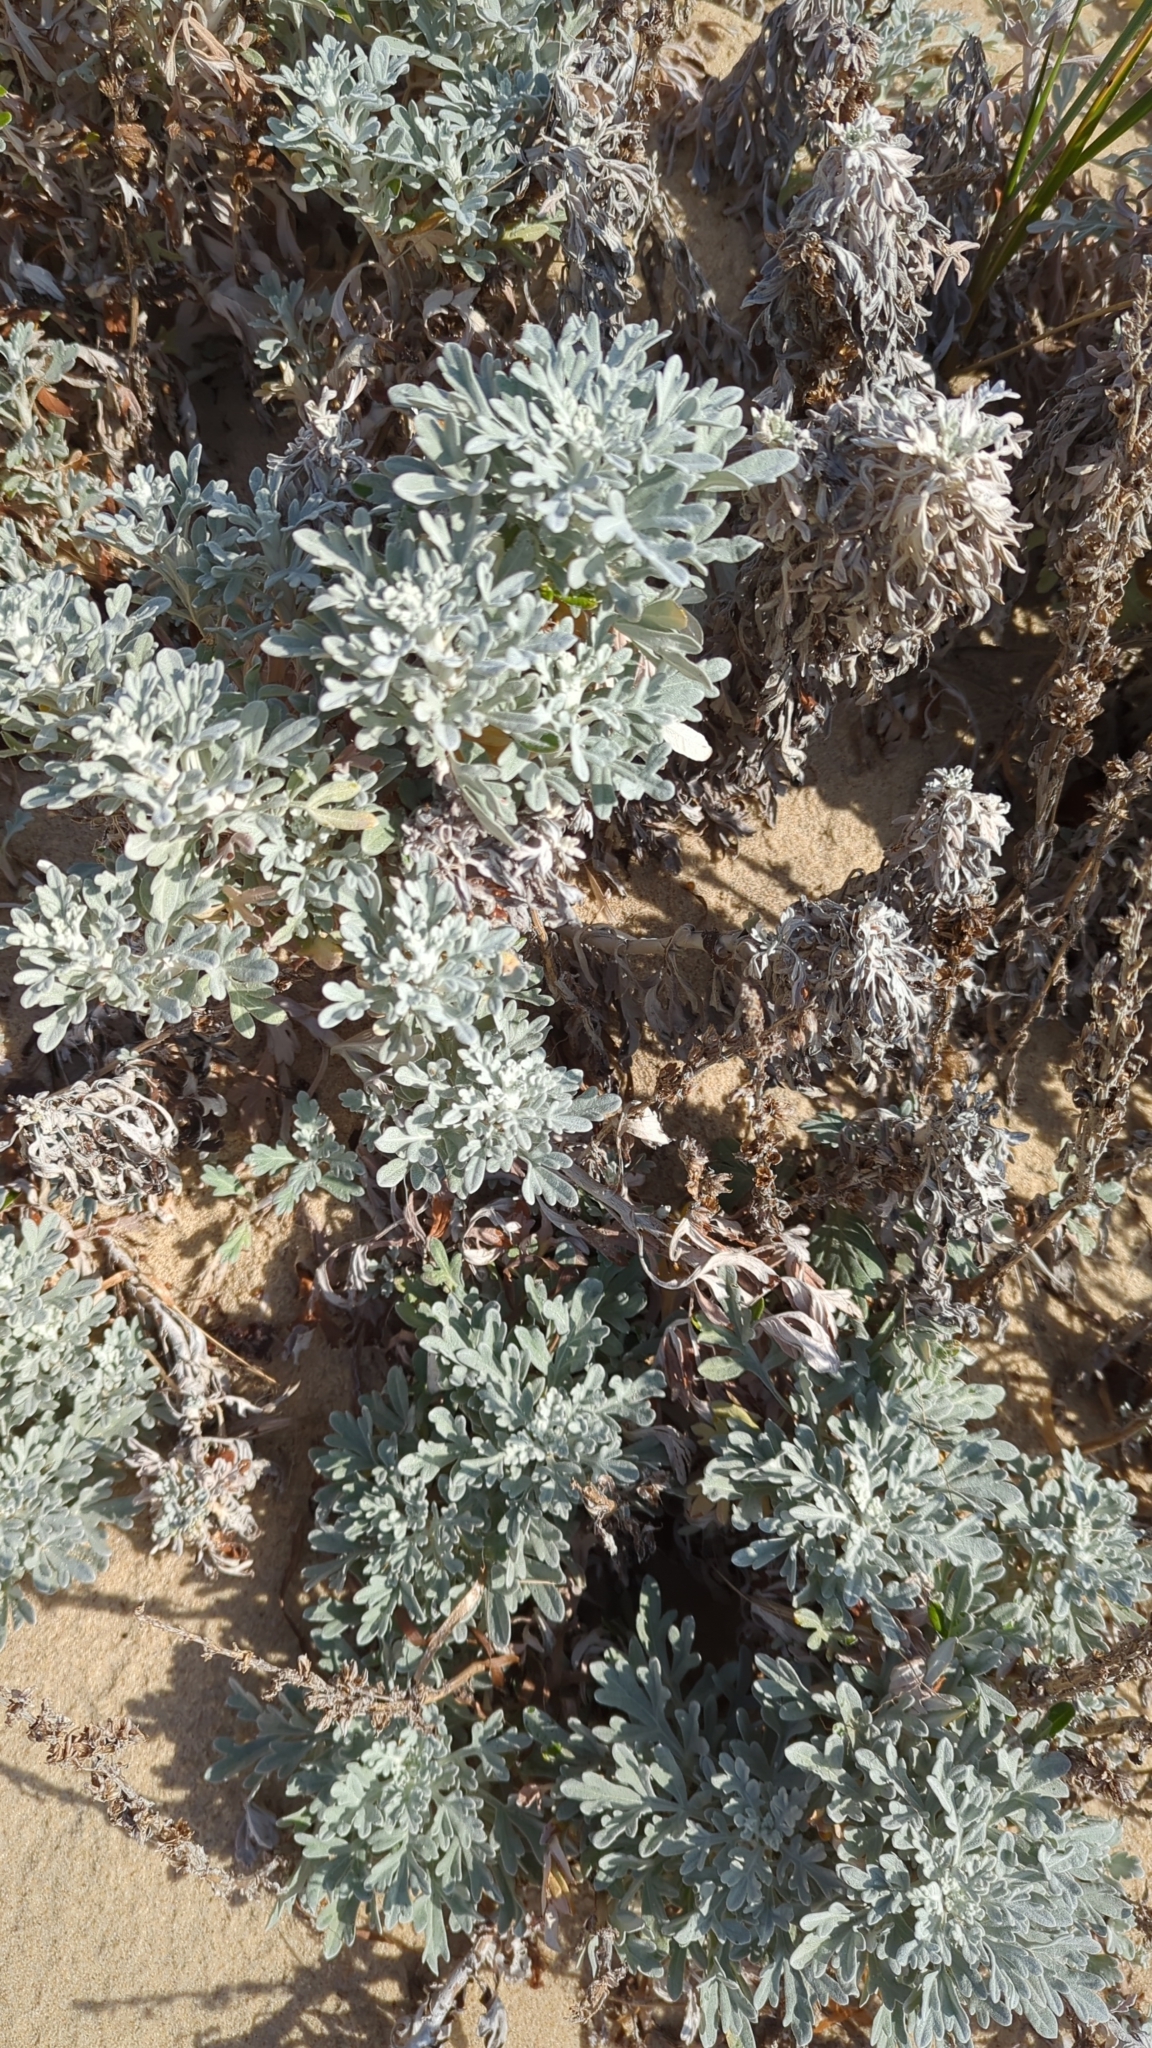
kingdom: Plantae
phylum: Tracheophyta
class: Magnoliopsida
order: Asterales
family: Asteraceae
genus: Artemisia
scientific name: Artemisia stelleriana
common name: Beach wormwood
